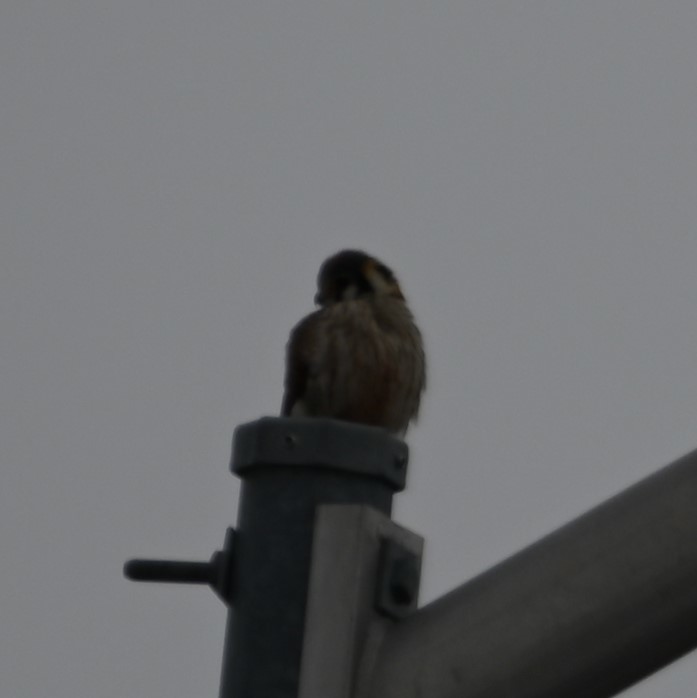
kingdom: Animalia
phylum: Chordata
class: Aves
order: Falconiformes
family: Falconidae
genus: Falco
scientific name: Falco sparverius
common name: American kestrel
